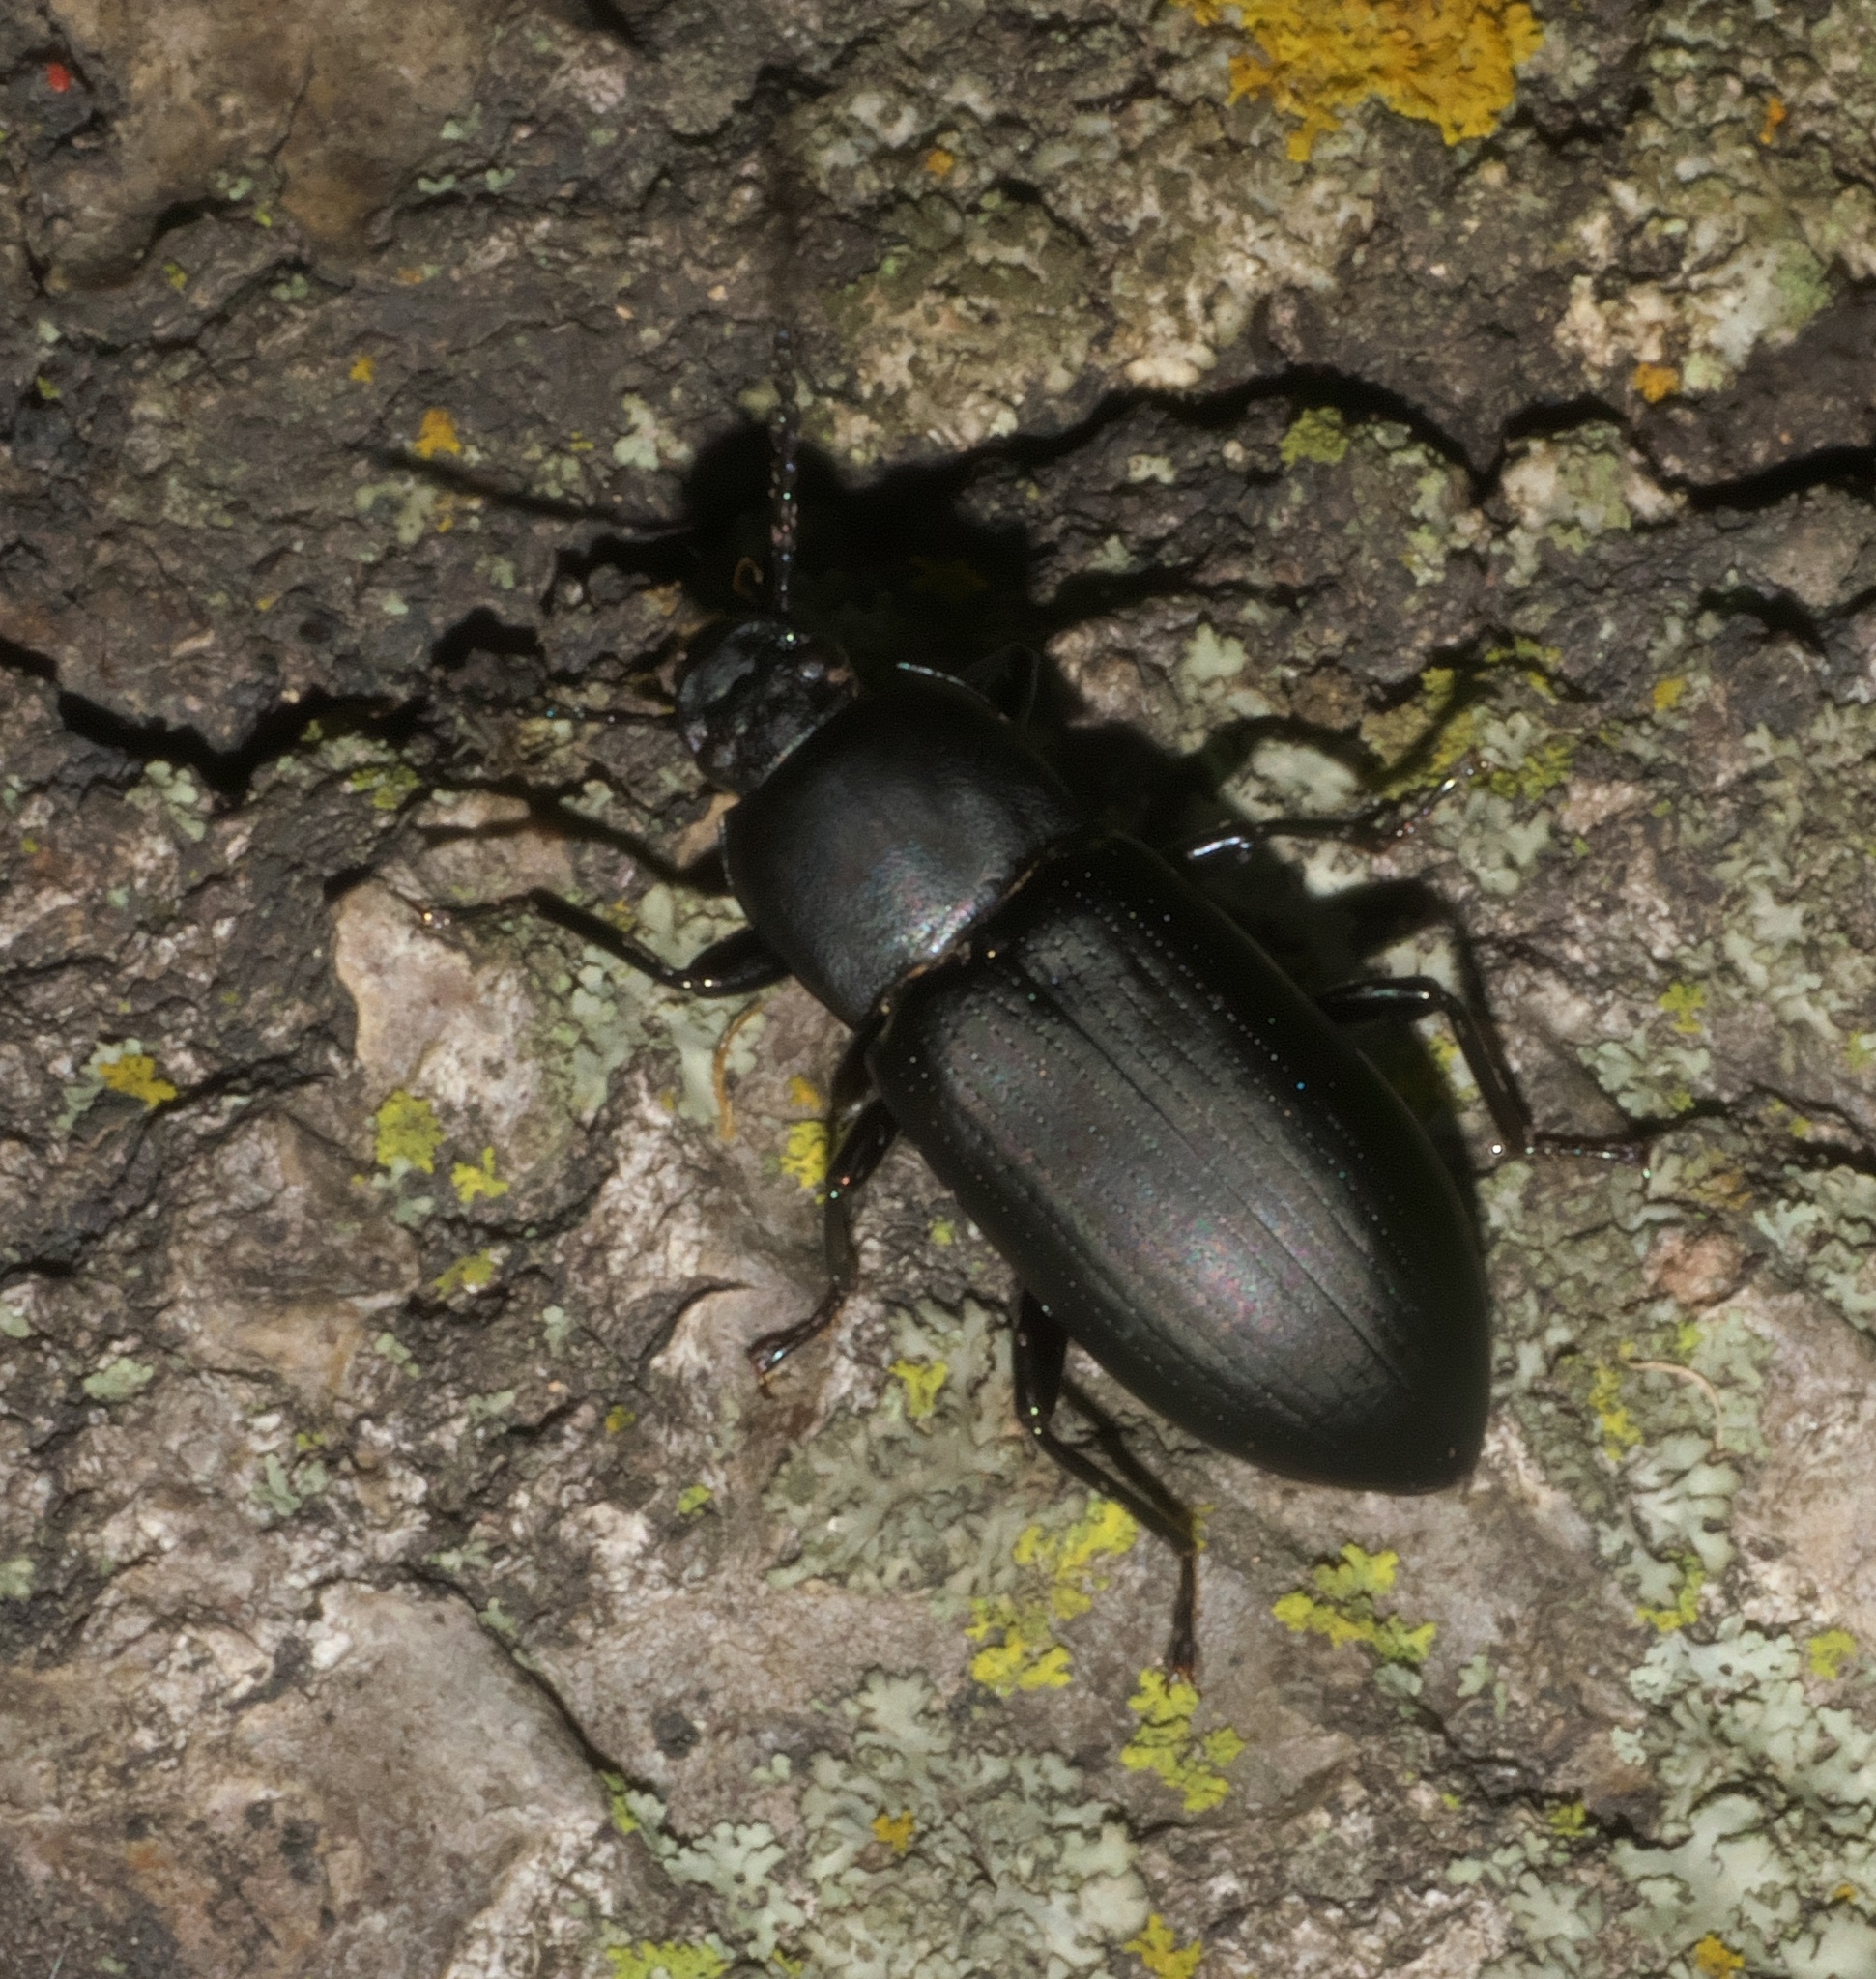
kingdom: Animalia
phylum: Arthropoda
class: Insecta
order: Coleoptera
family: Tenebrionidae
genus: Centronopus
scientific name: Centronopus opacus
